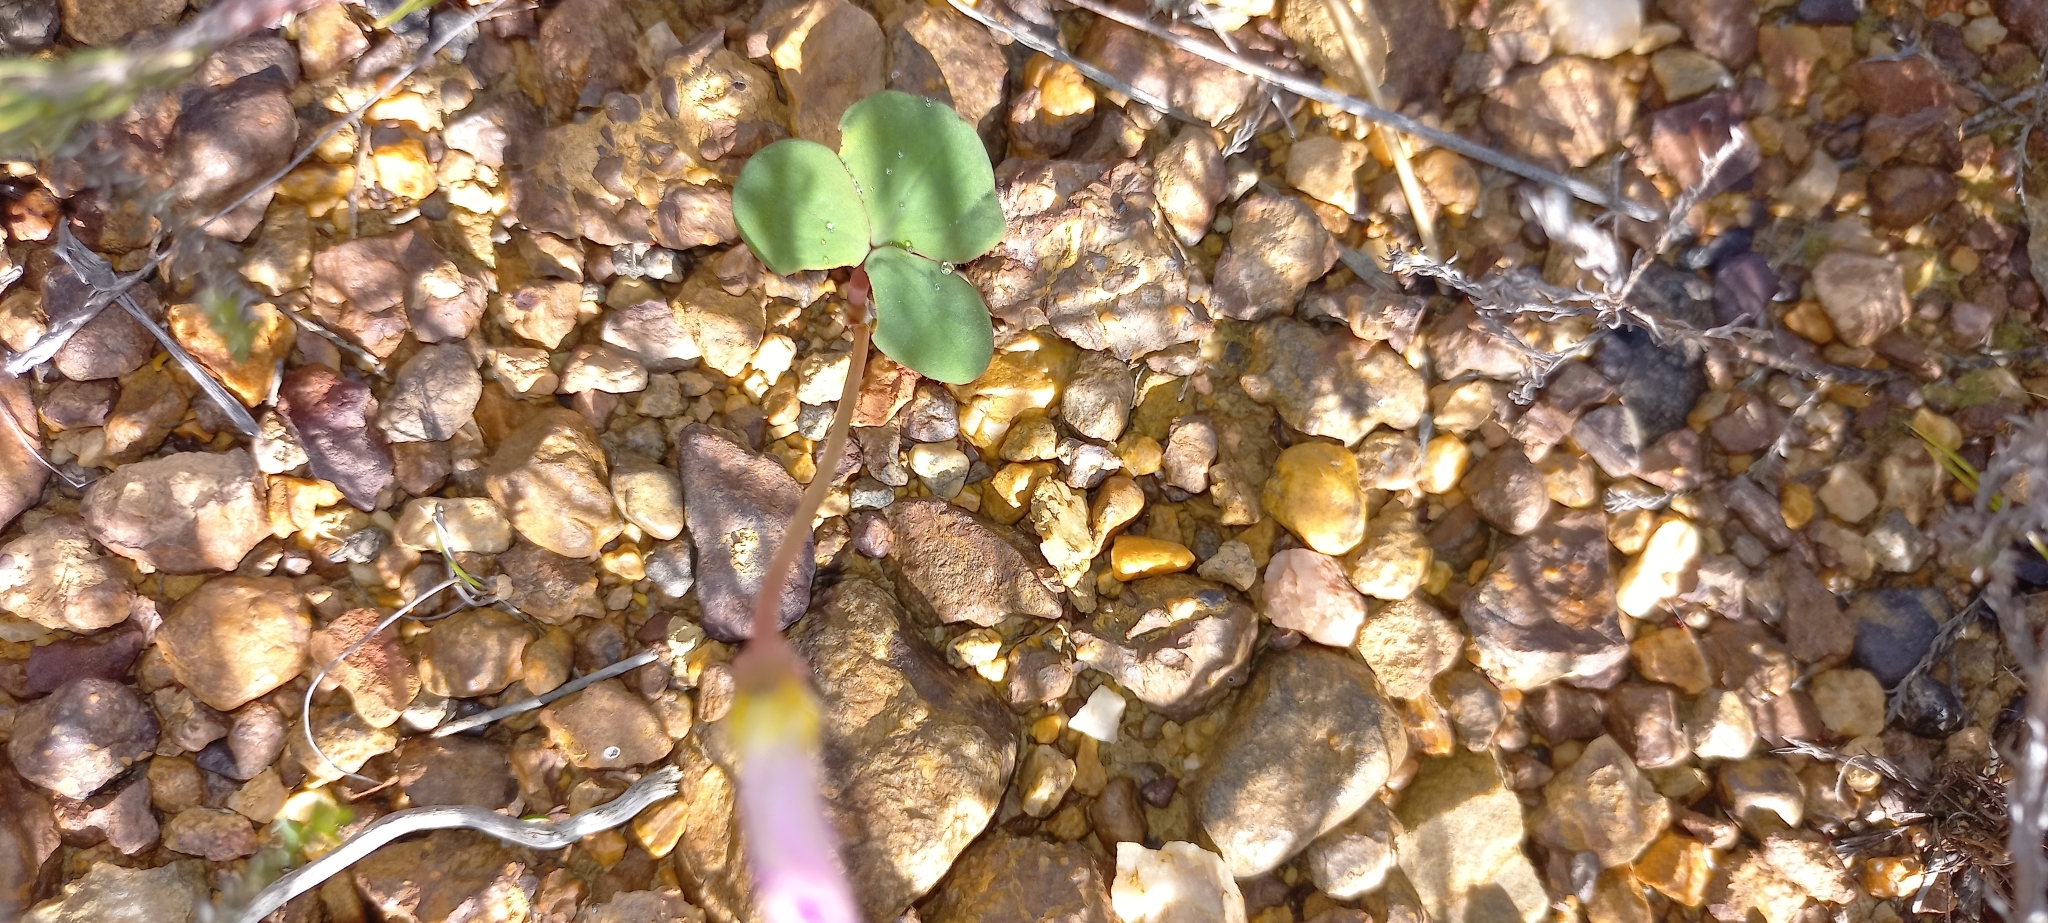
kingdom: Plantae
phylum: Tracheophyta
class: Magnoliopsida
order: Oxalidales
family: Oxalidaceae
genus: Oxalis
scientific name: Oxalis depressa
